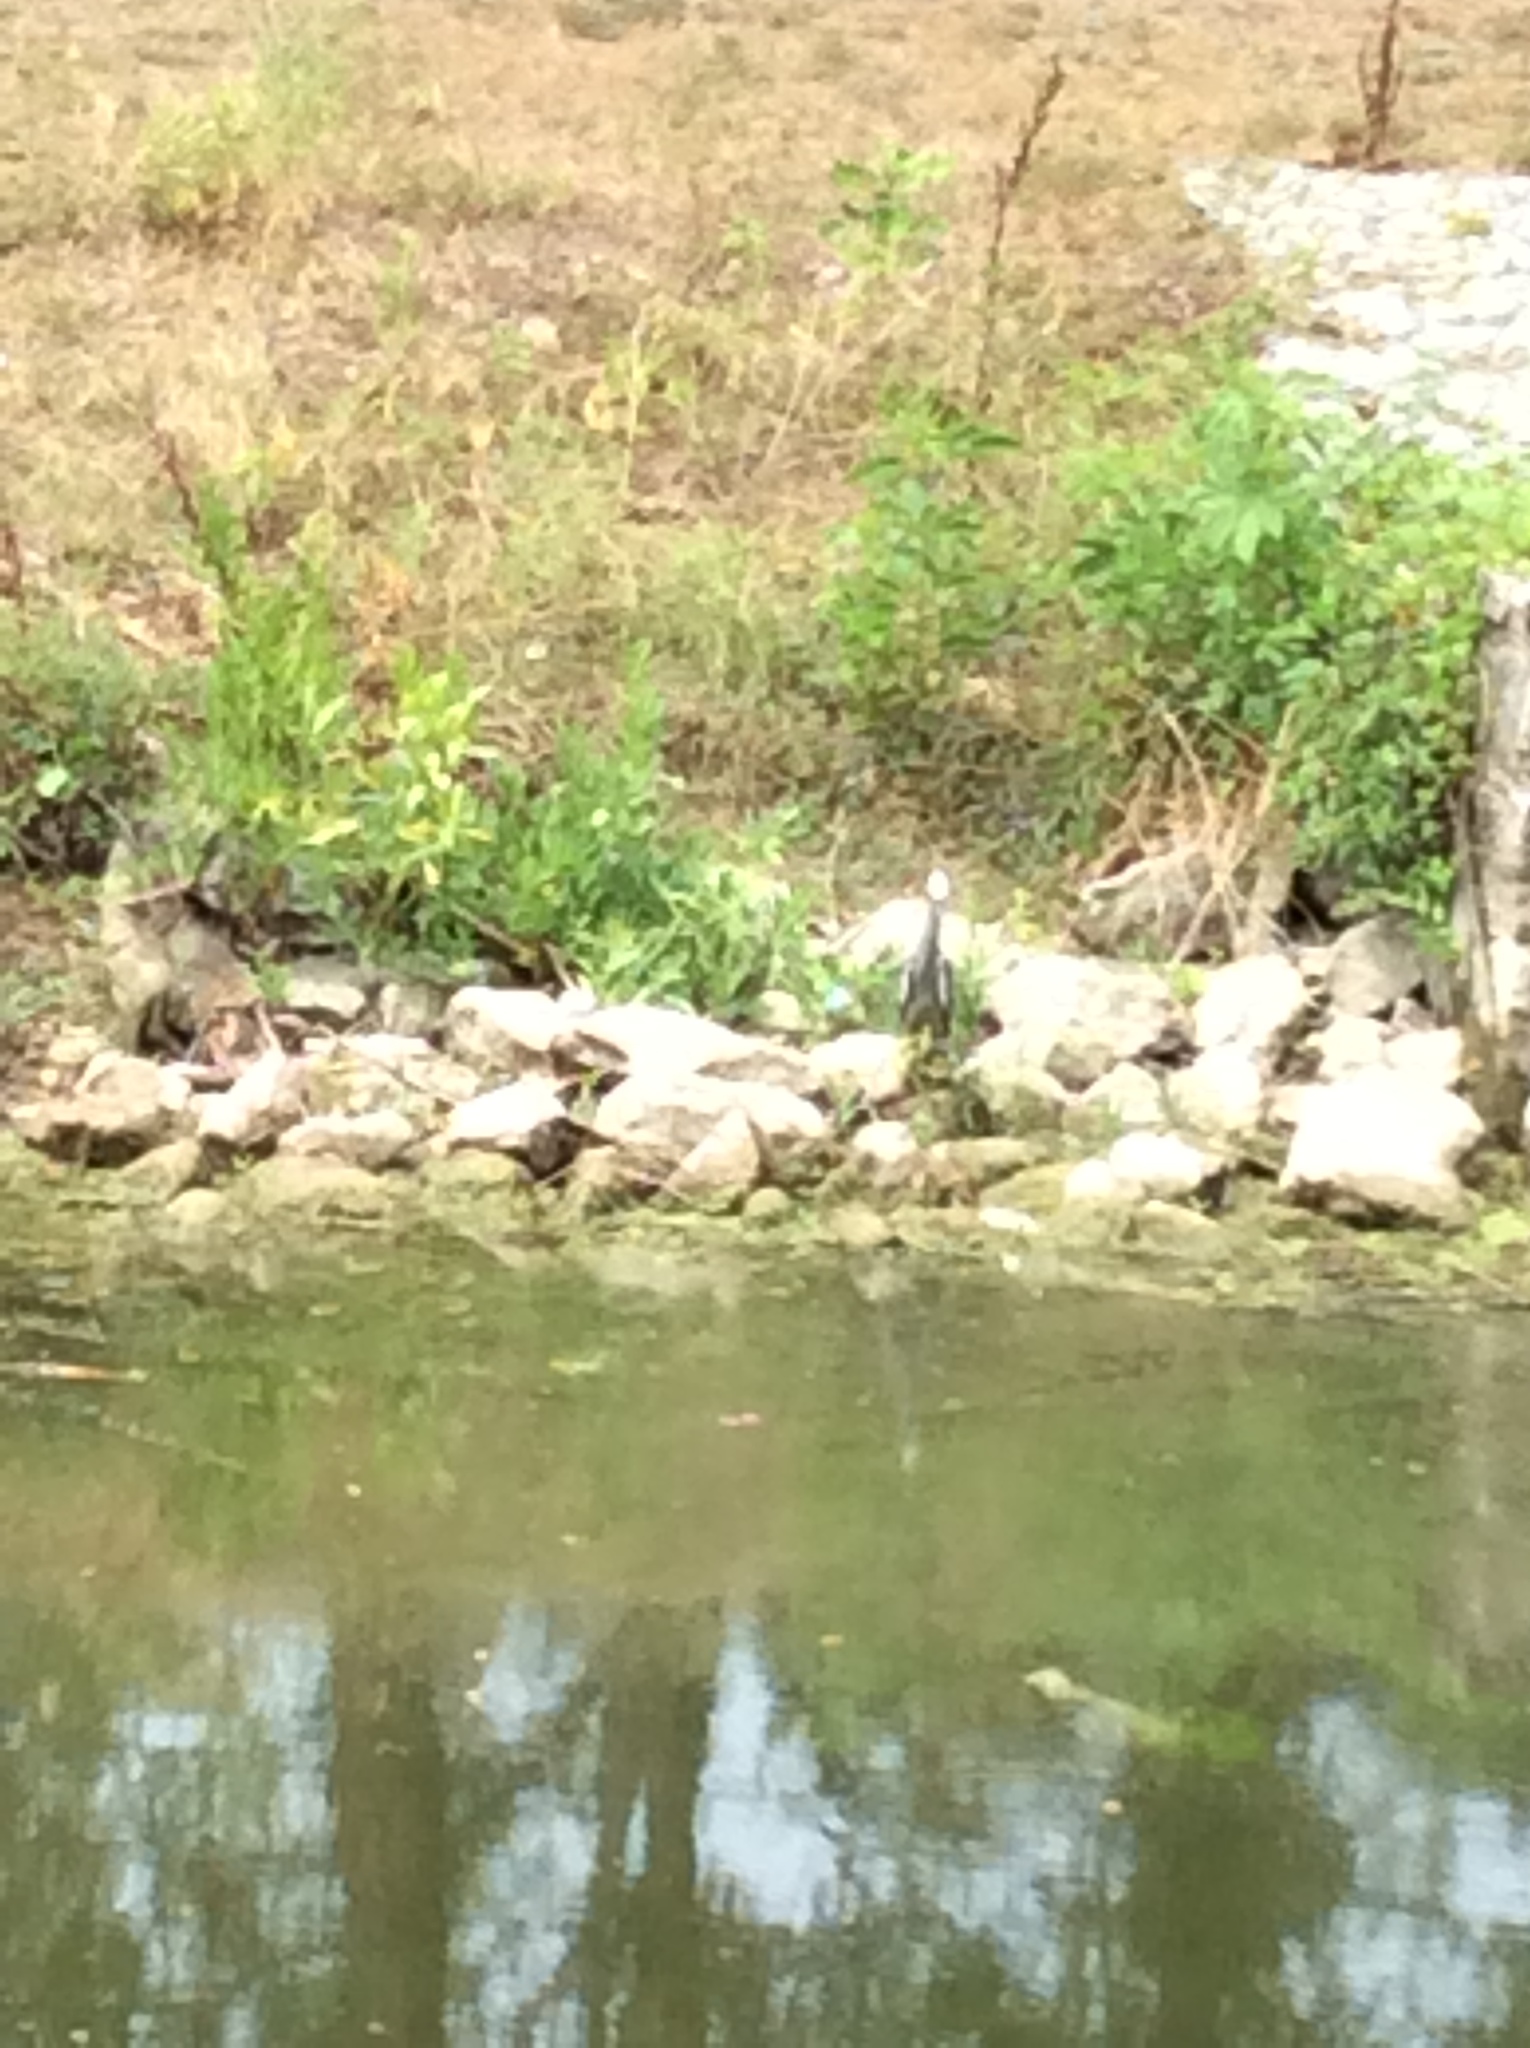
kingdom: Animalia
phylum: Chordata
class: Aves
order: Pelecaniformes
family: Ardeidae
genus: Nyctanassa
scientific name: Nyctanassa violacea
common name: Yellow-crowned night heron
